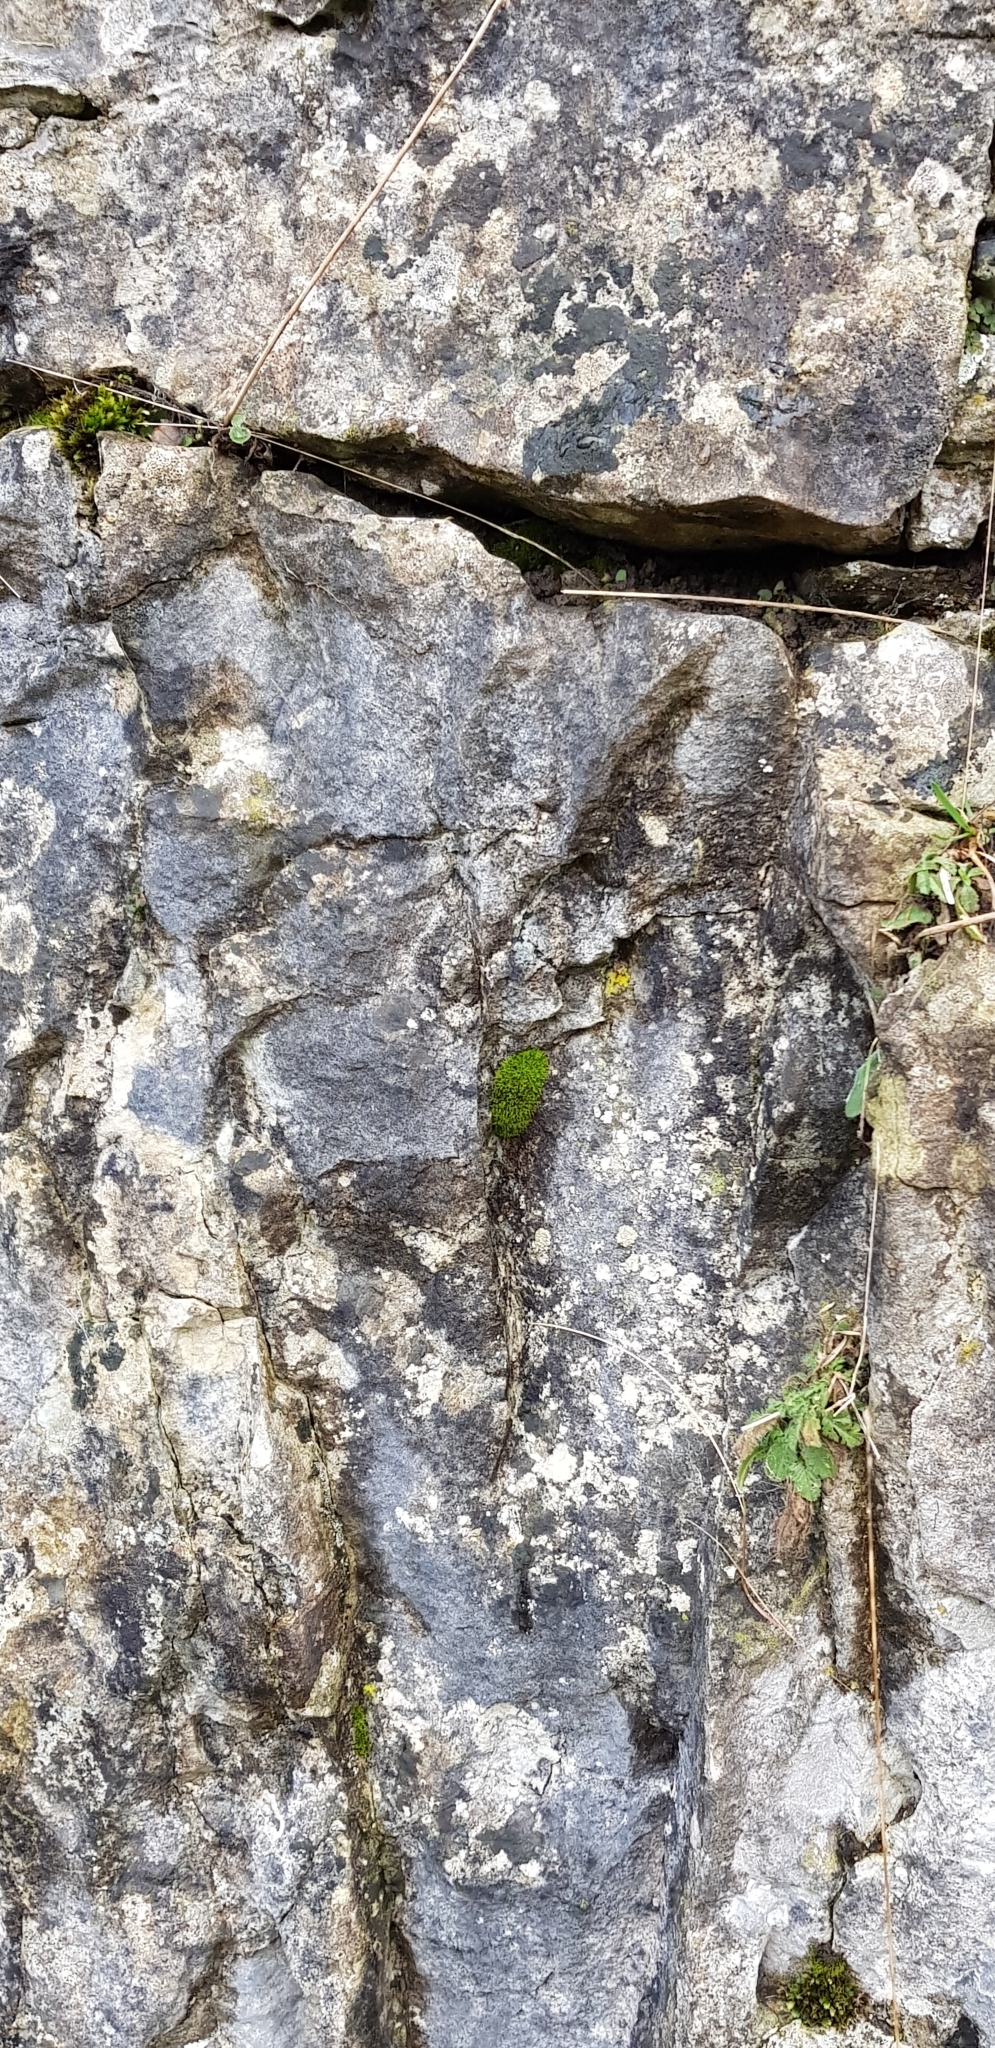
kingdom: Plantae
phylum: Bryophyta
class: Bryopsida
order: Pottiales
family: Pottiaceae
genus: Trichostomum
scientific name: Trichostomum crispulum
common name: Curly crisp-moss
